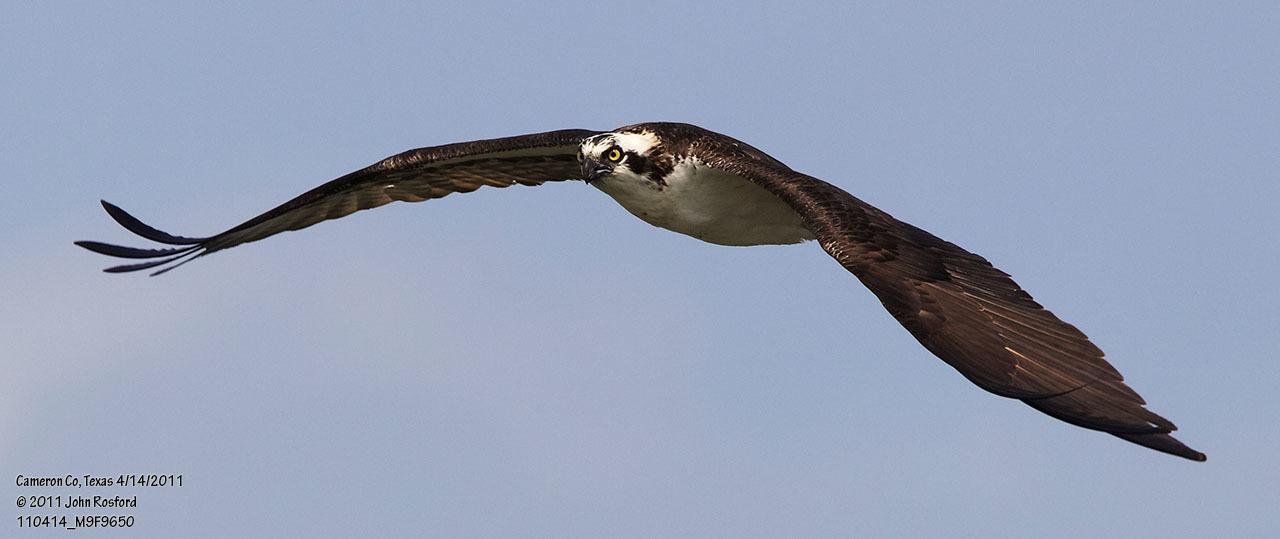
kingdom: Animalia
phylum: Chordata
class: Aves
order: Accipitriformes
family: Pandionidae
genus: Pandion
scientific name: Pandion haliaetus
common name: Osprey
